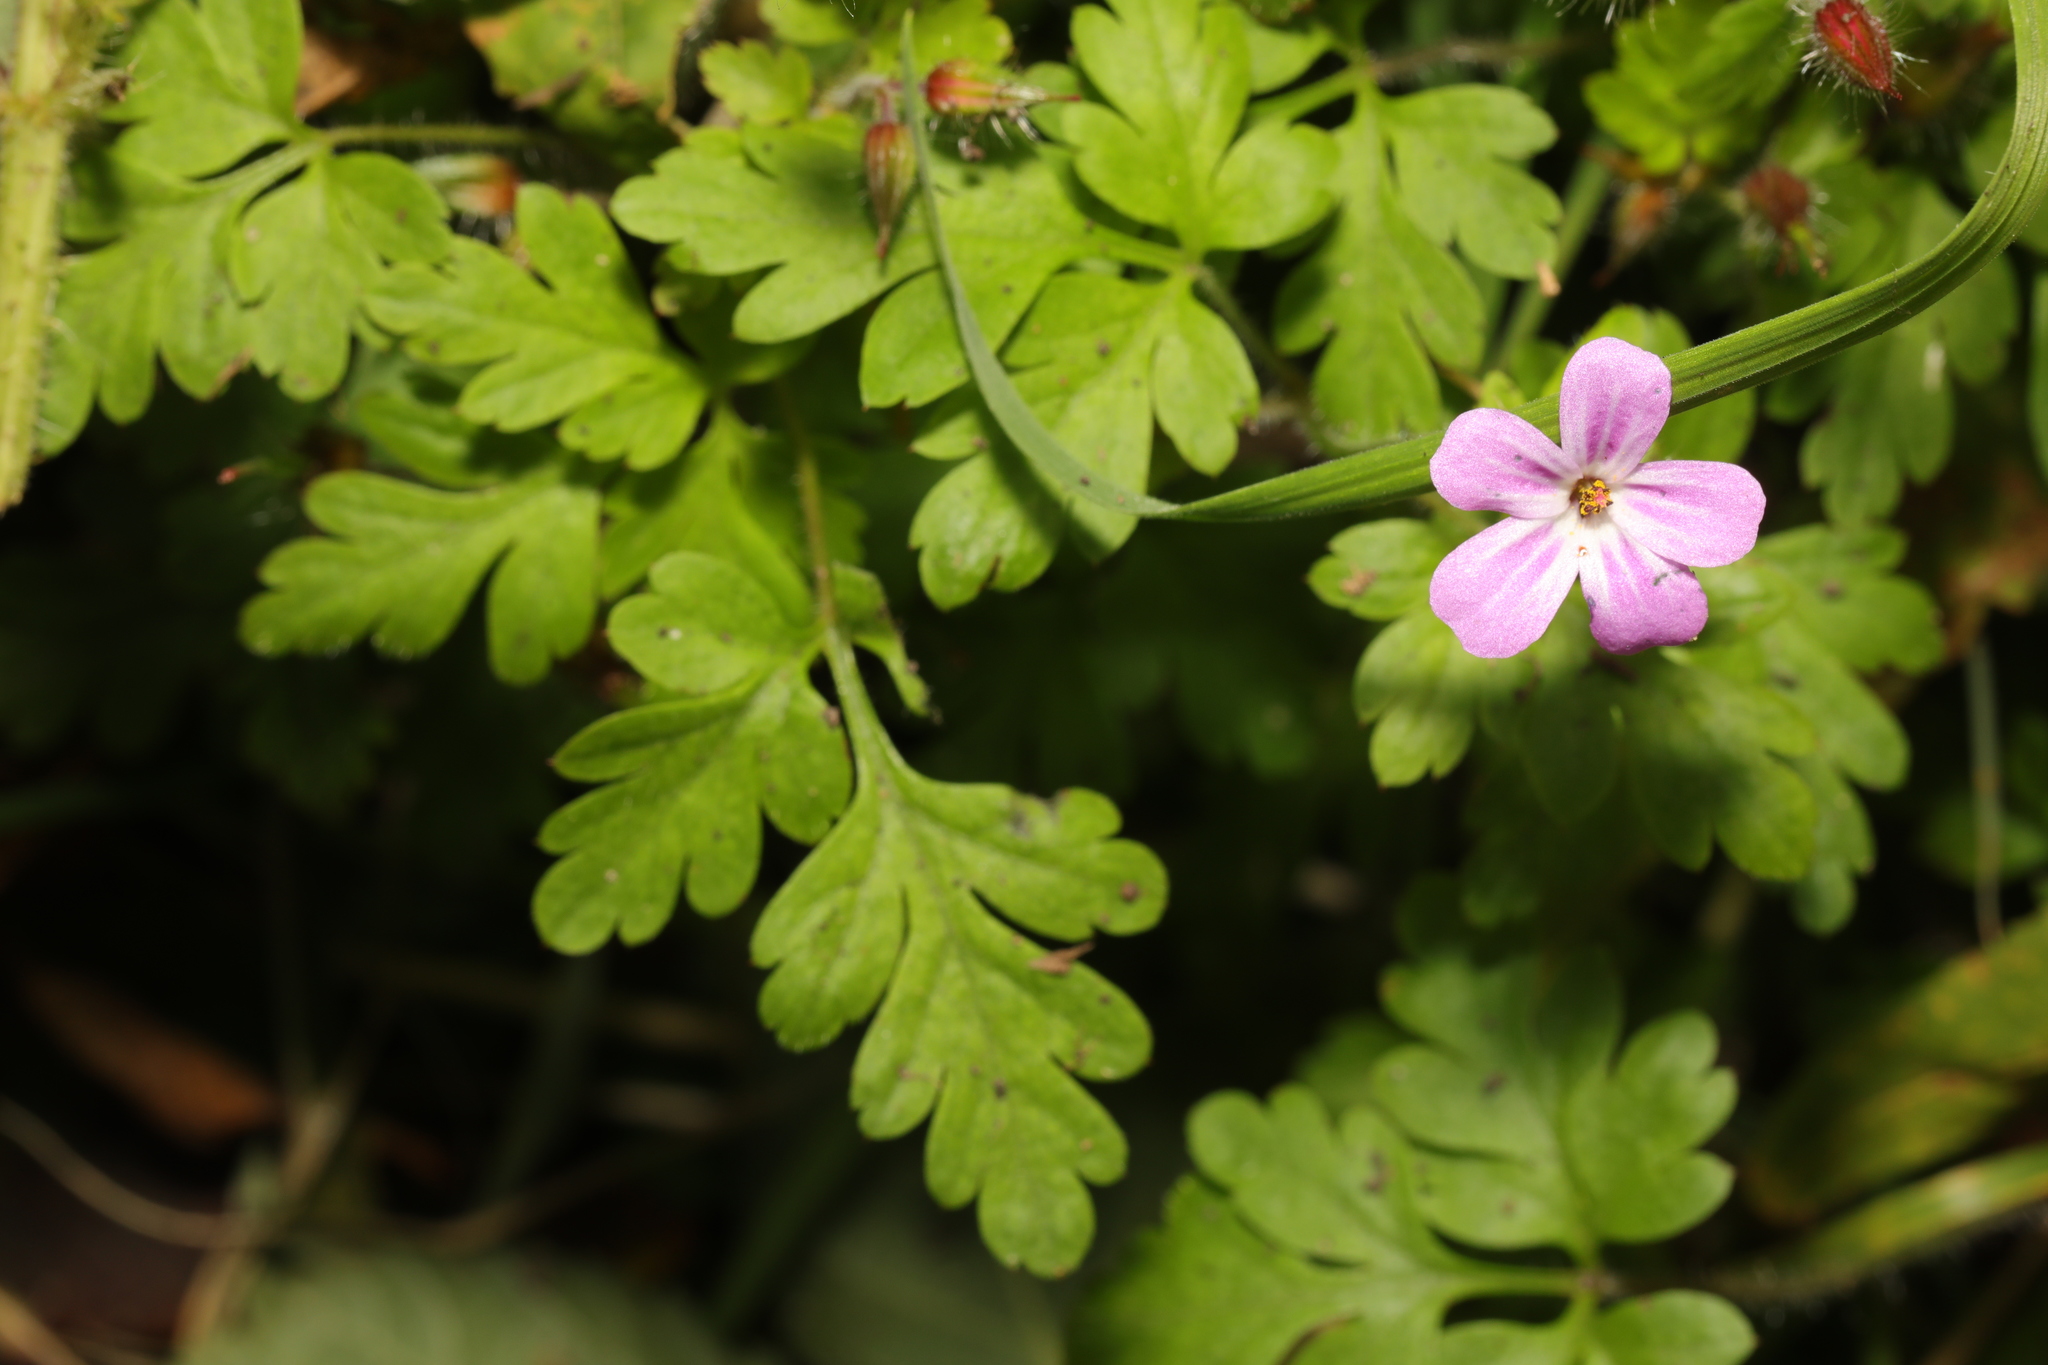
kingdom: Plantae
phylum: Tracheophyta
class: Magnoliopsida
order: Geraniales
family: Geraniaceae
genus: Geranium
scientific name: Geranium robertianum
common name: Herb-robert
